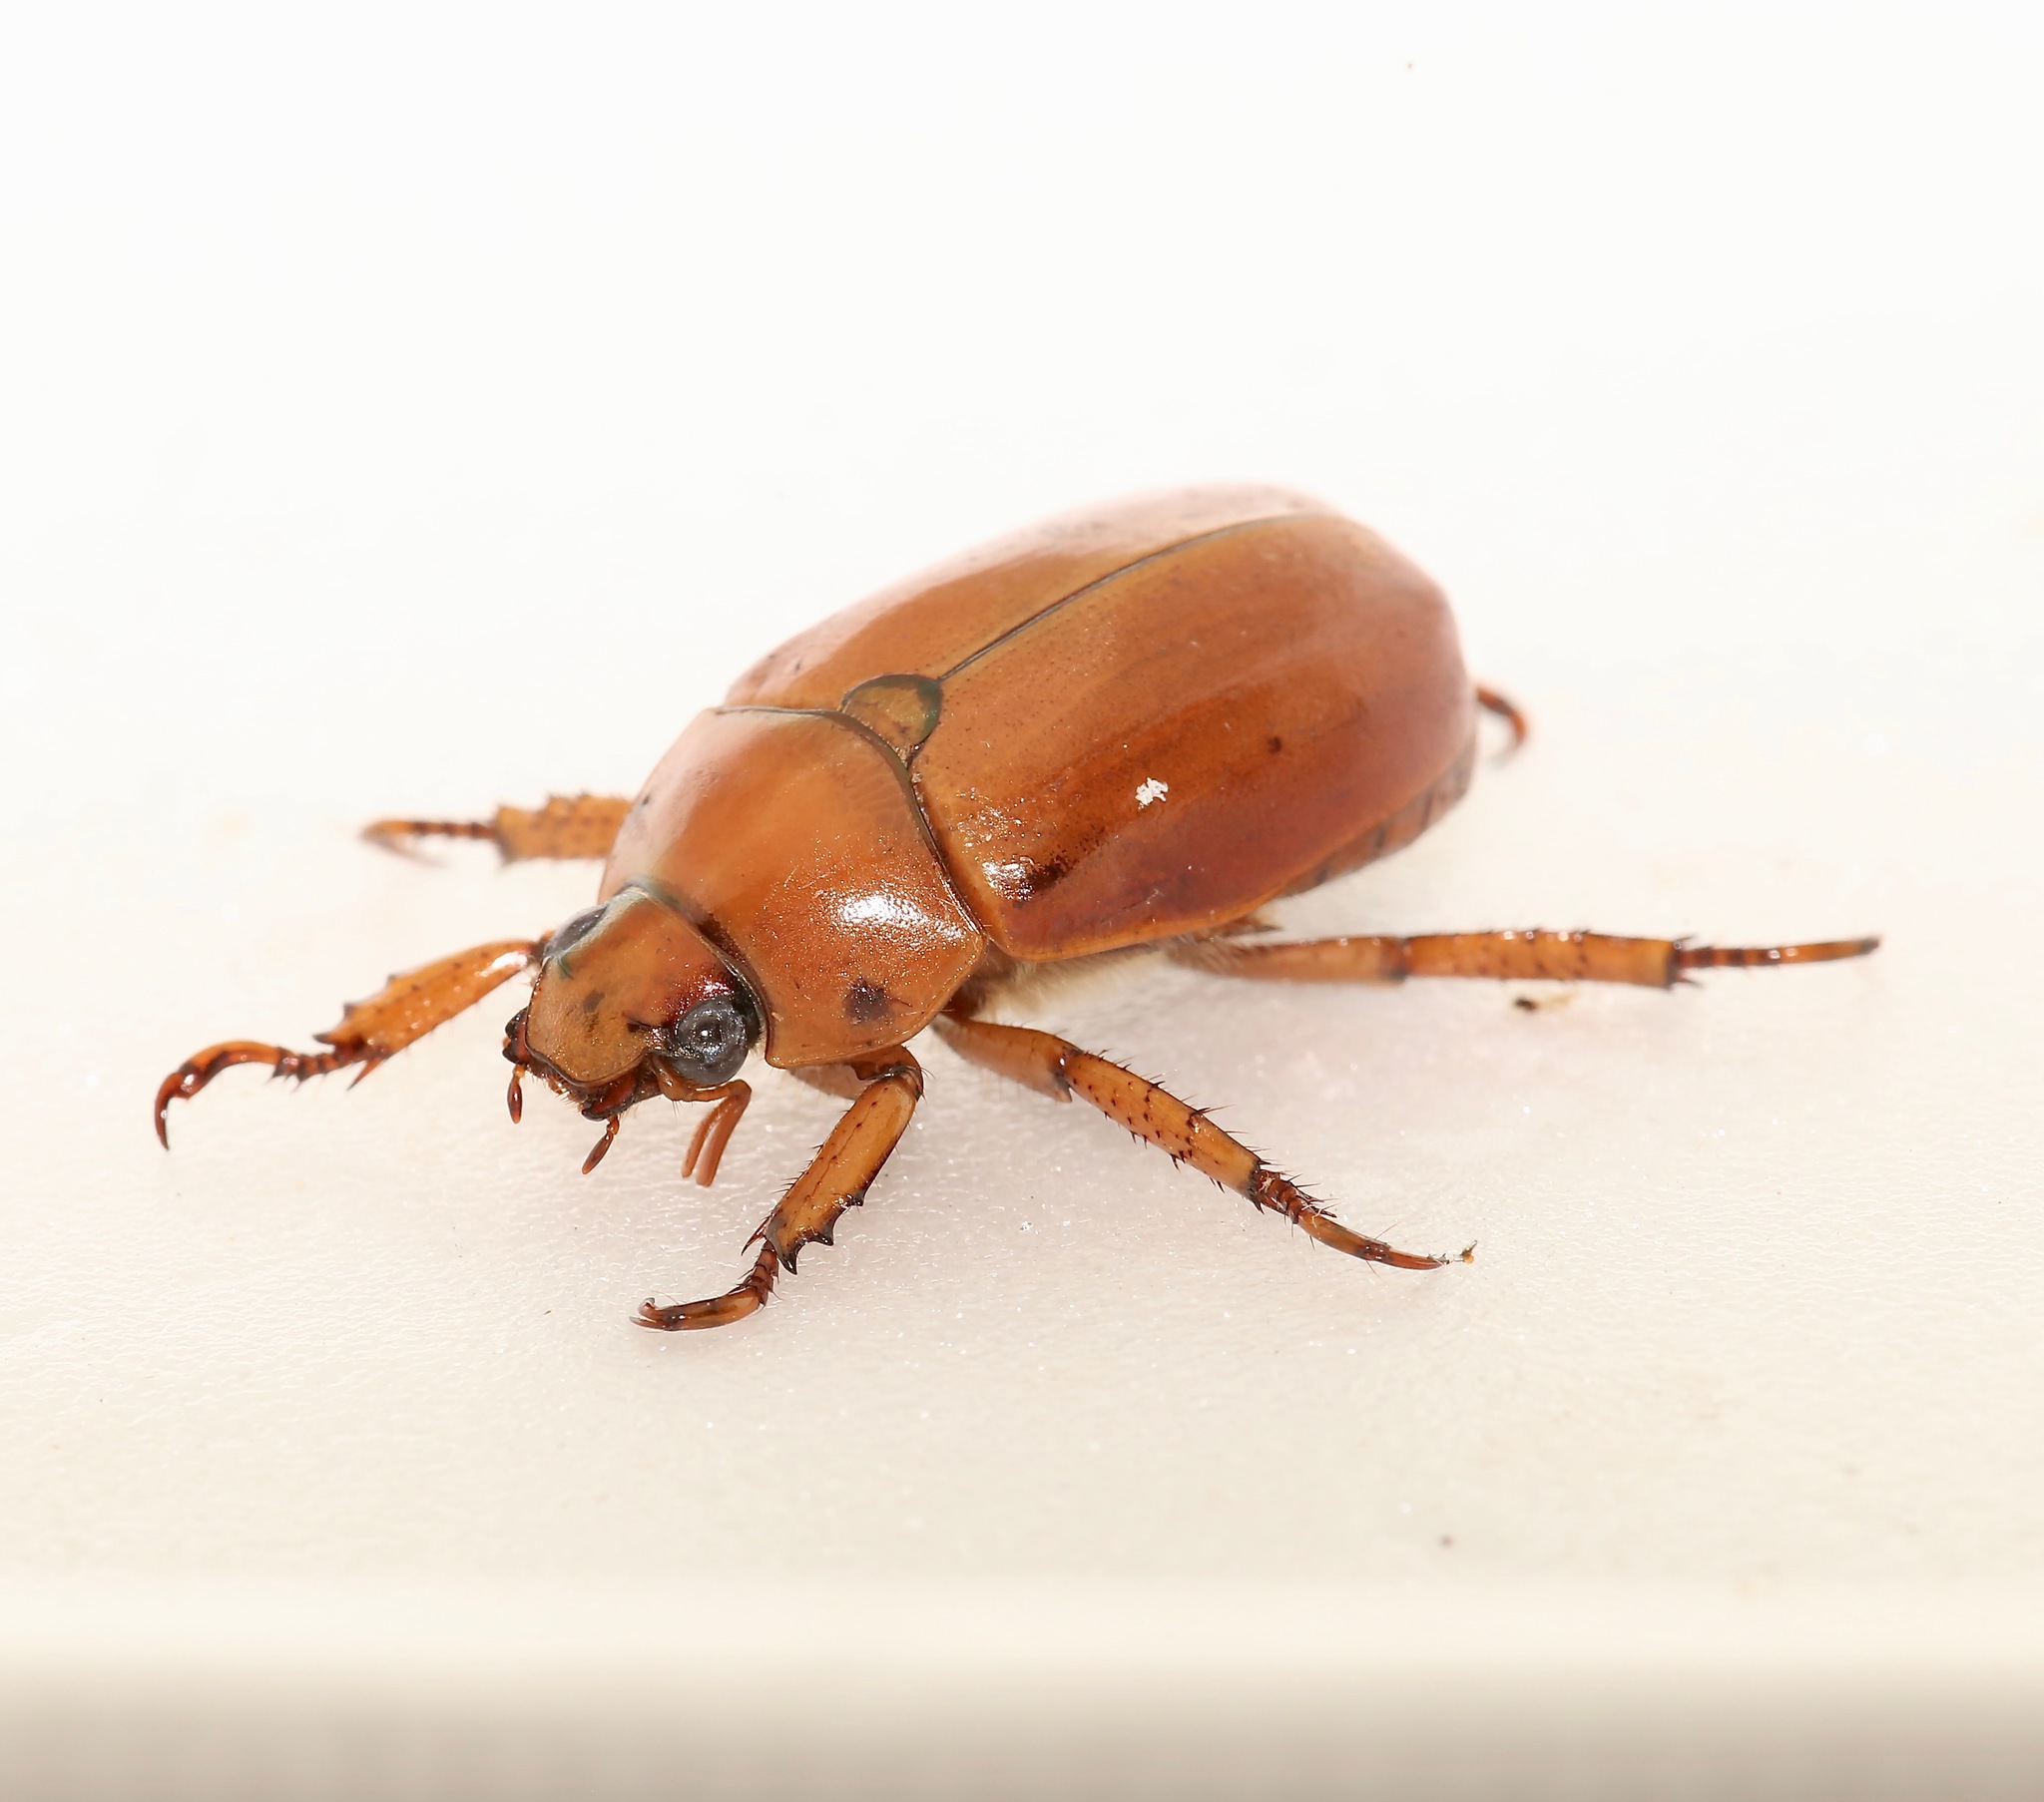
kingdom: Animalia
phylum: Arthropoda
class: Insecta
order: Coleoptera
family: Scarabaeidae
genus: Pelidnota
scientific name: Pelidnota punctata
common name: Grapevine beetle
